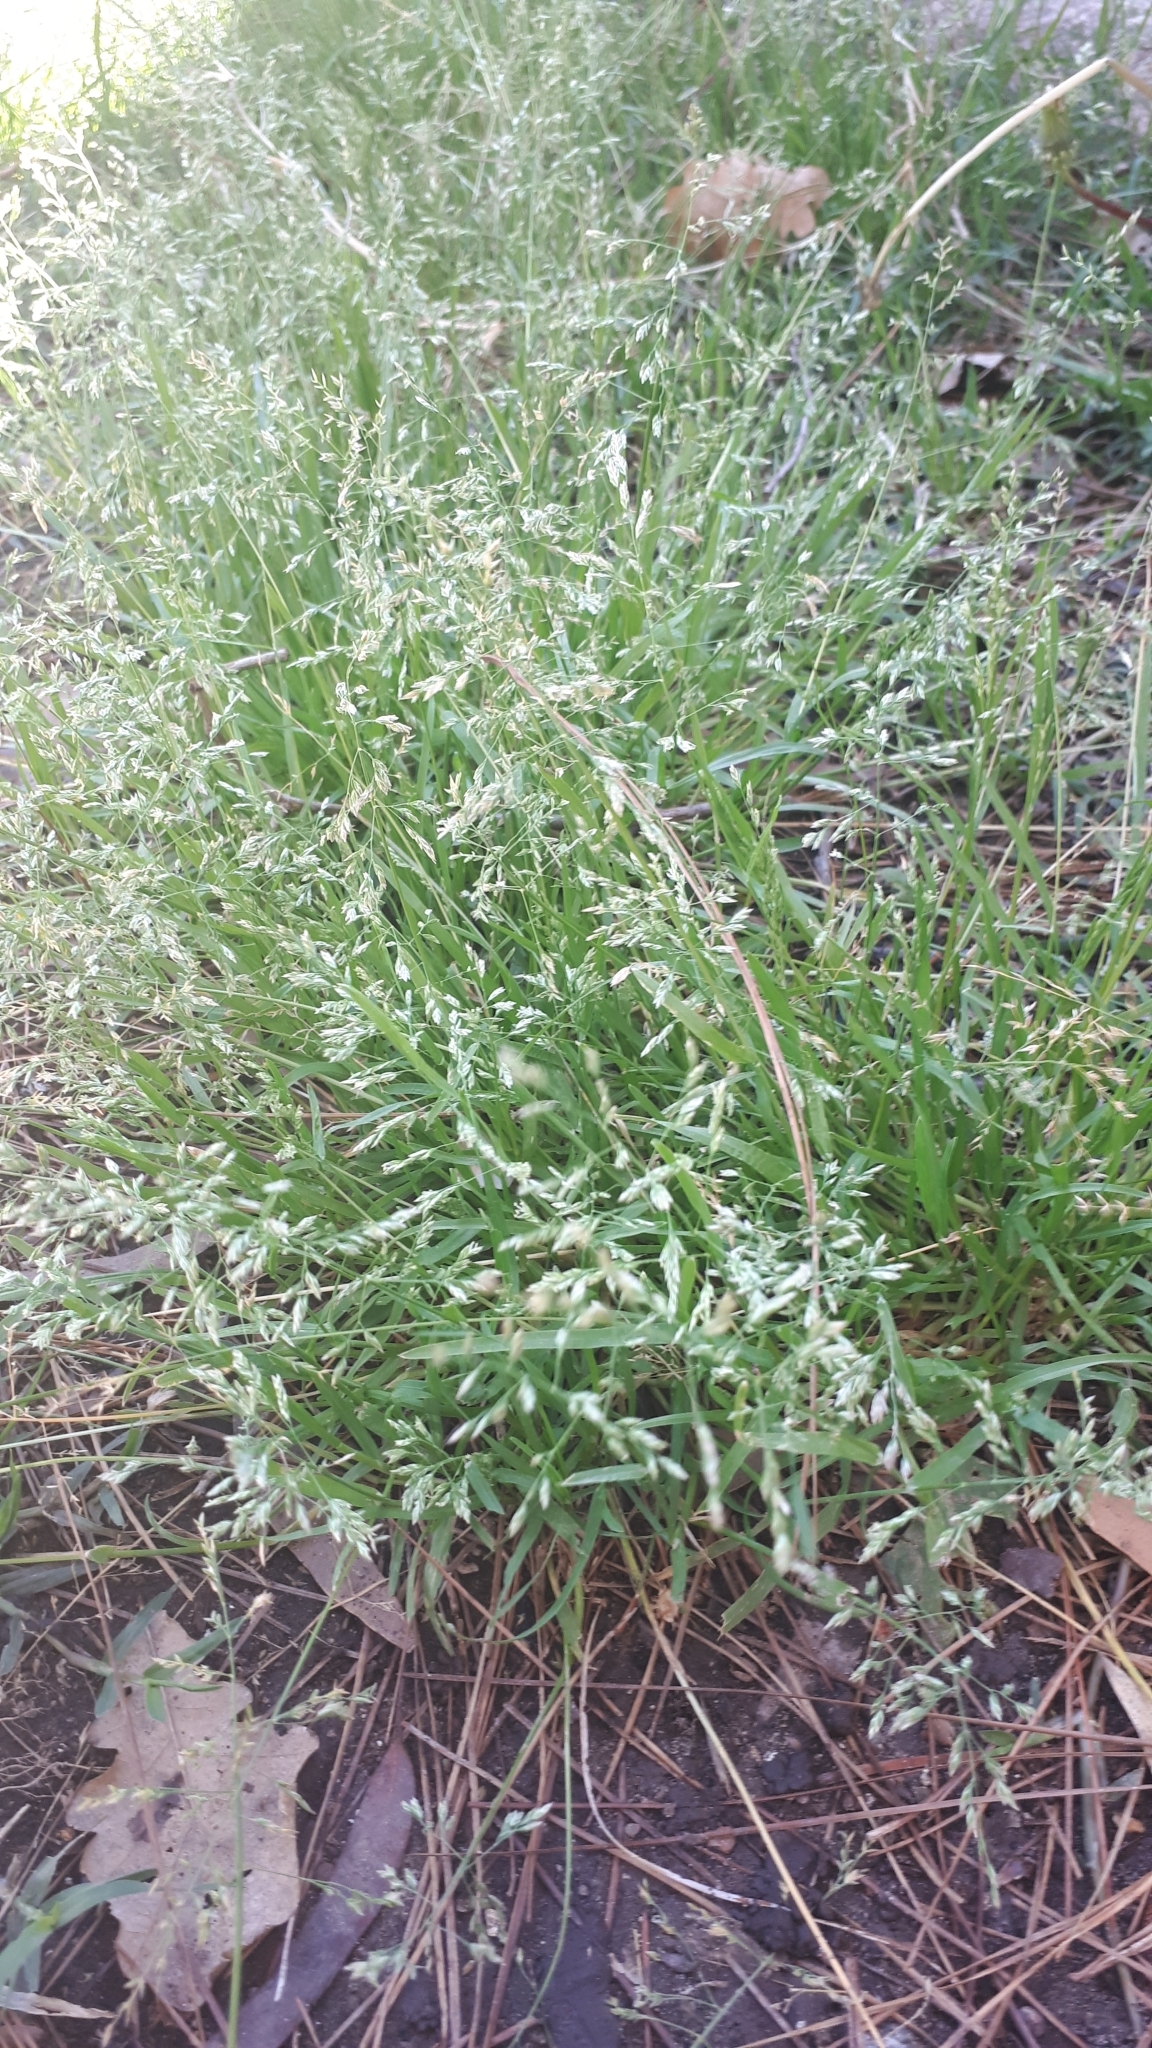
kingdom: Plantae
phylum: Tracheophyta
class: Liliopsida
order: Poales
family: Poaceae
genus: Poa
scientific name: Poa annua
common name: Annual bluegrass
